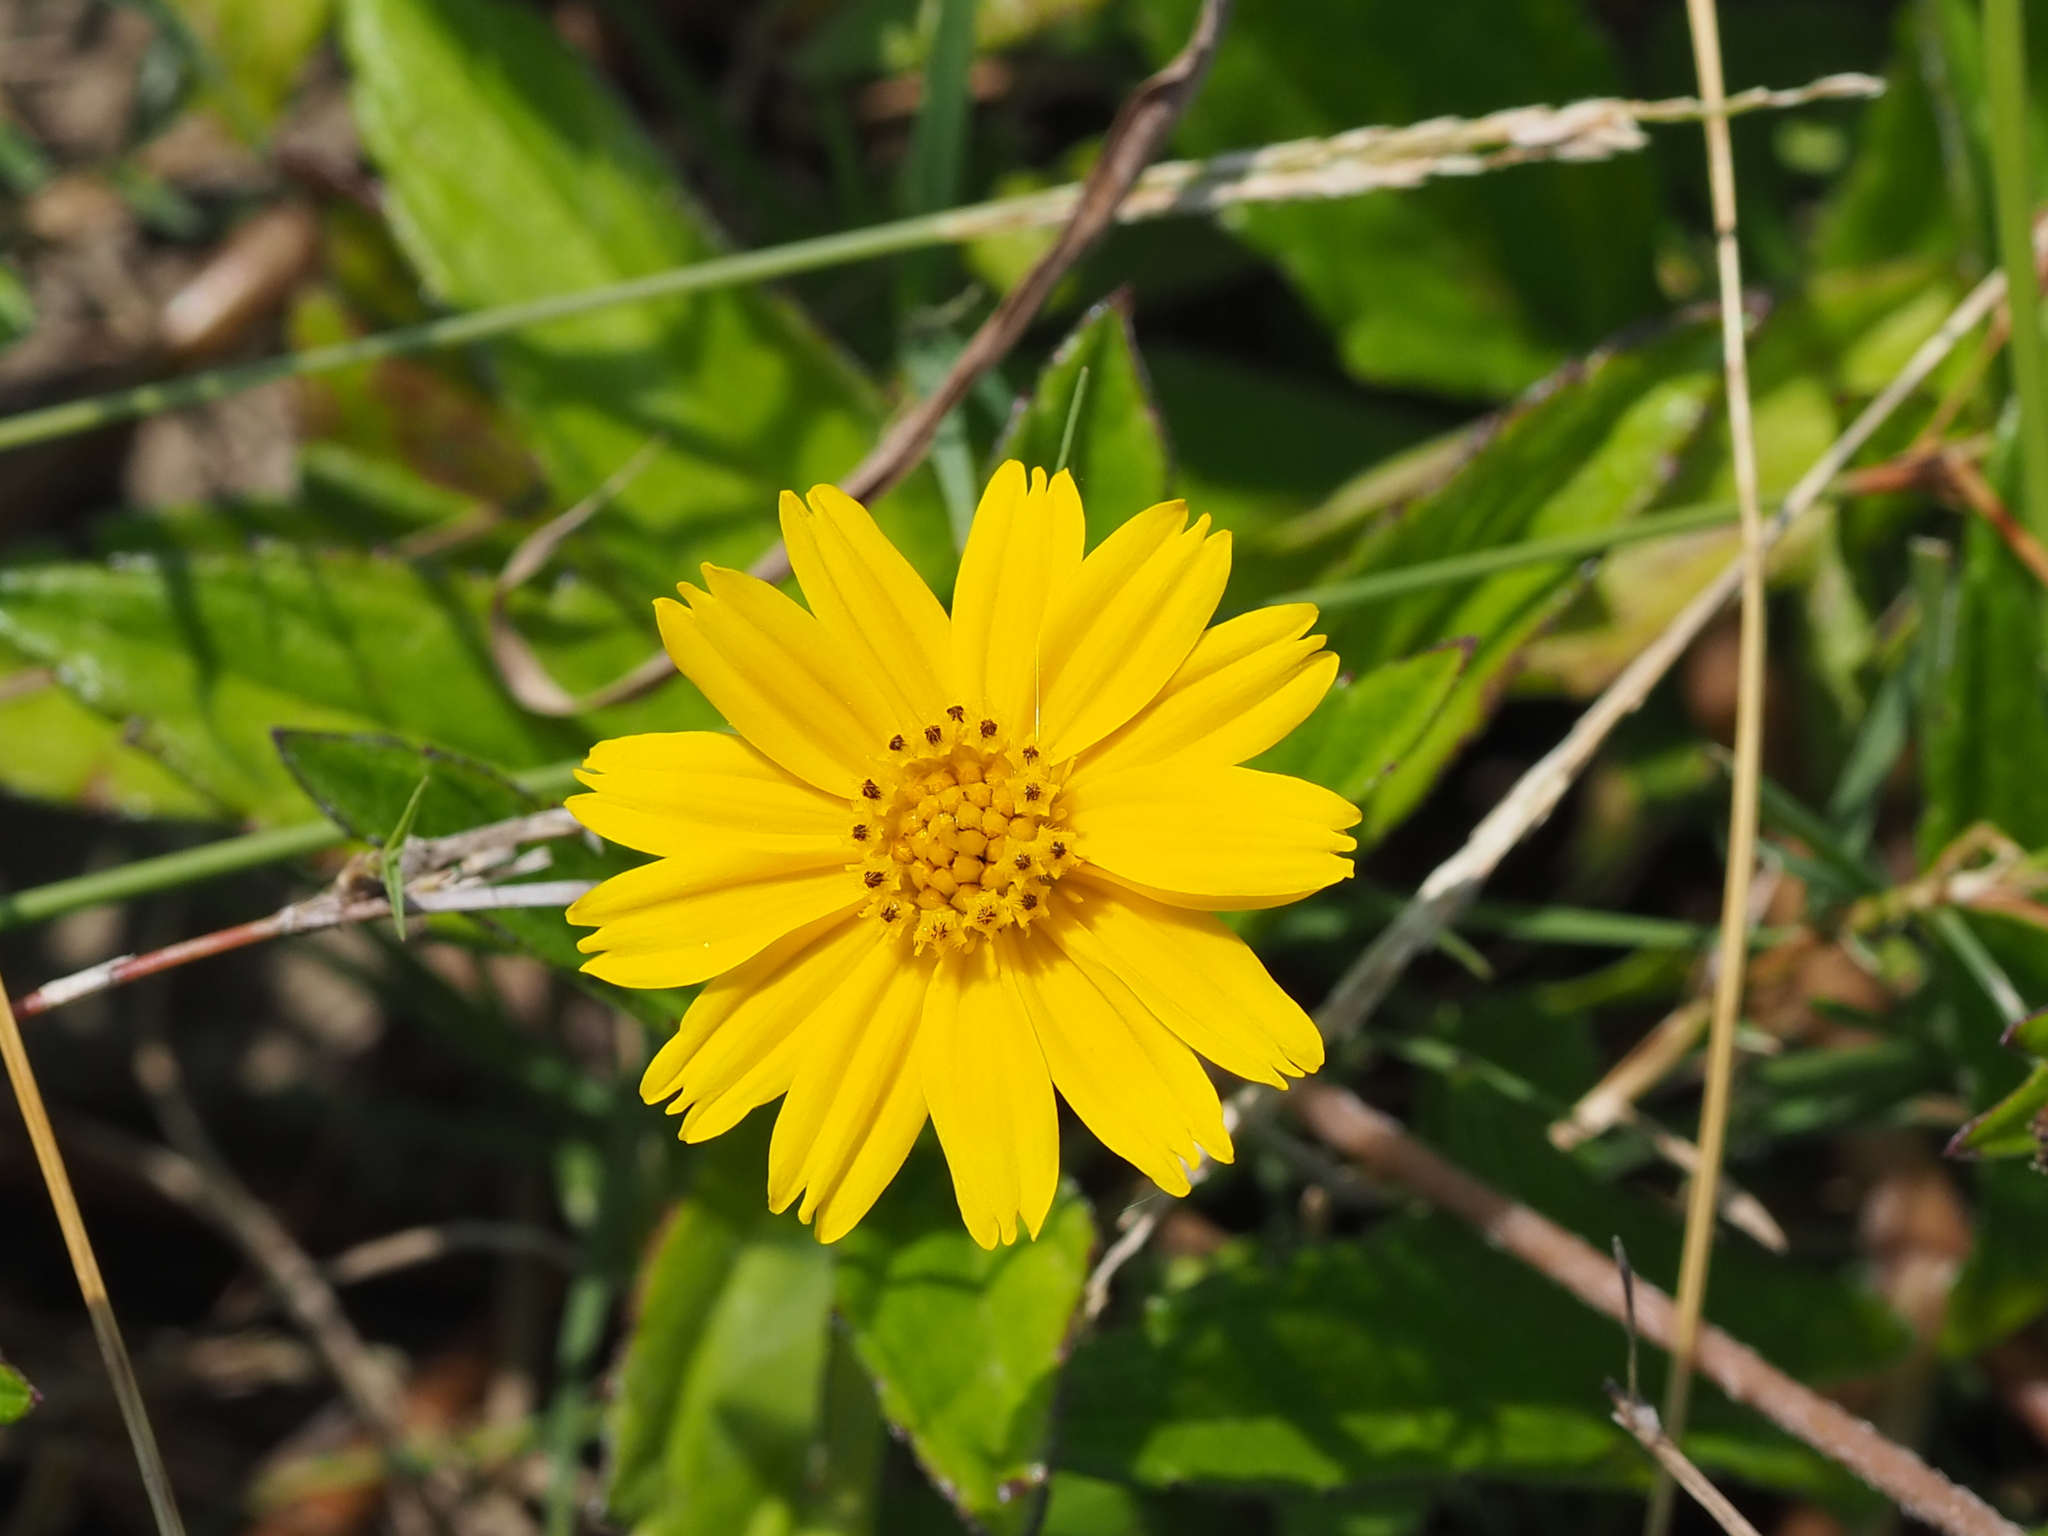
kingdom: Plantae
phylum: Tracheophyta
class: Magnoliopsida
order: Asterales
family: Asteraceae
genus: Sphagneticola
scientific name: Sphagneticola trilobata
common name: Bay biscayne creeping-oxeye
